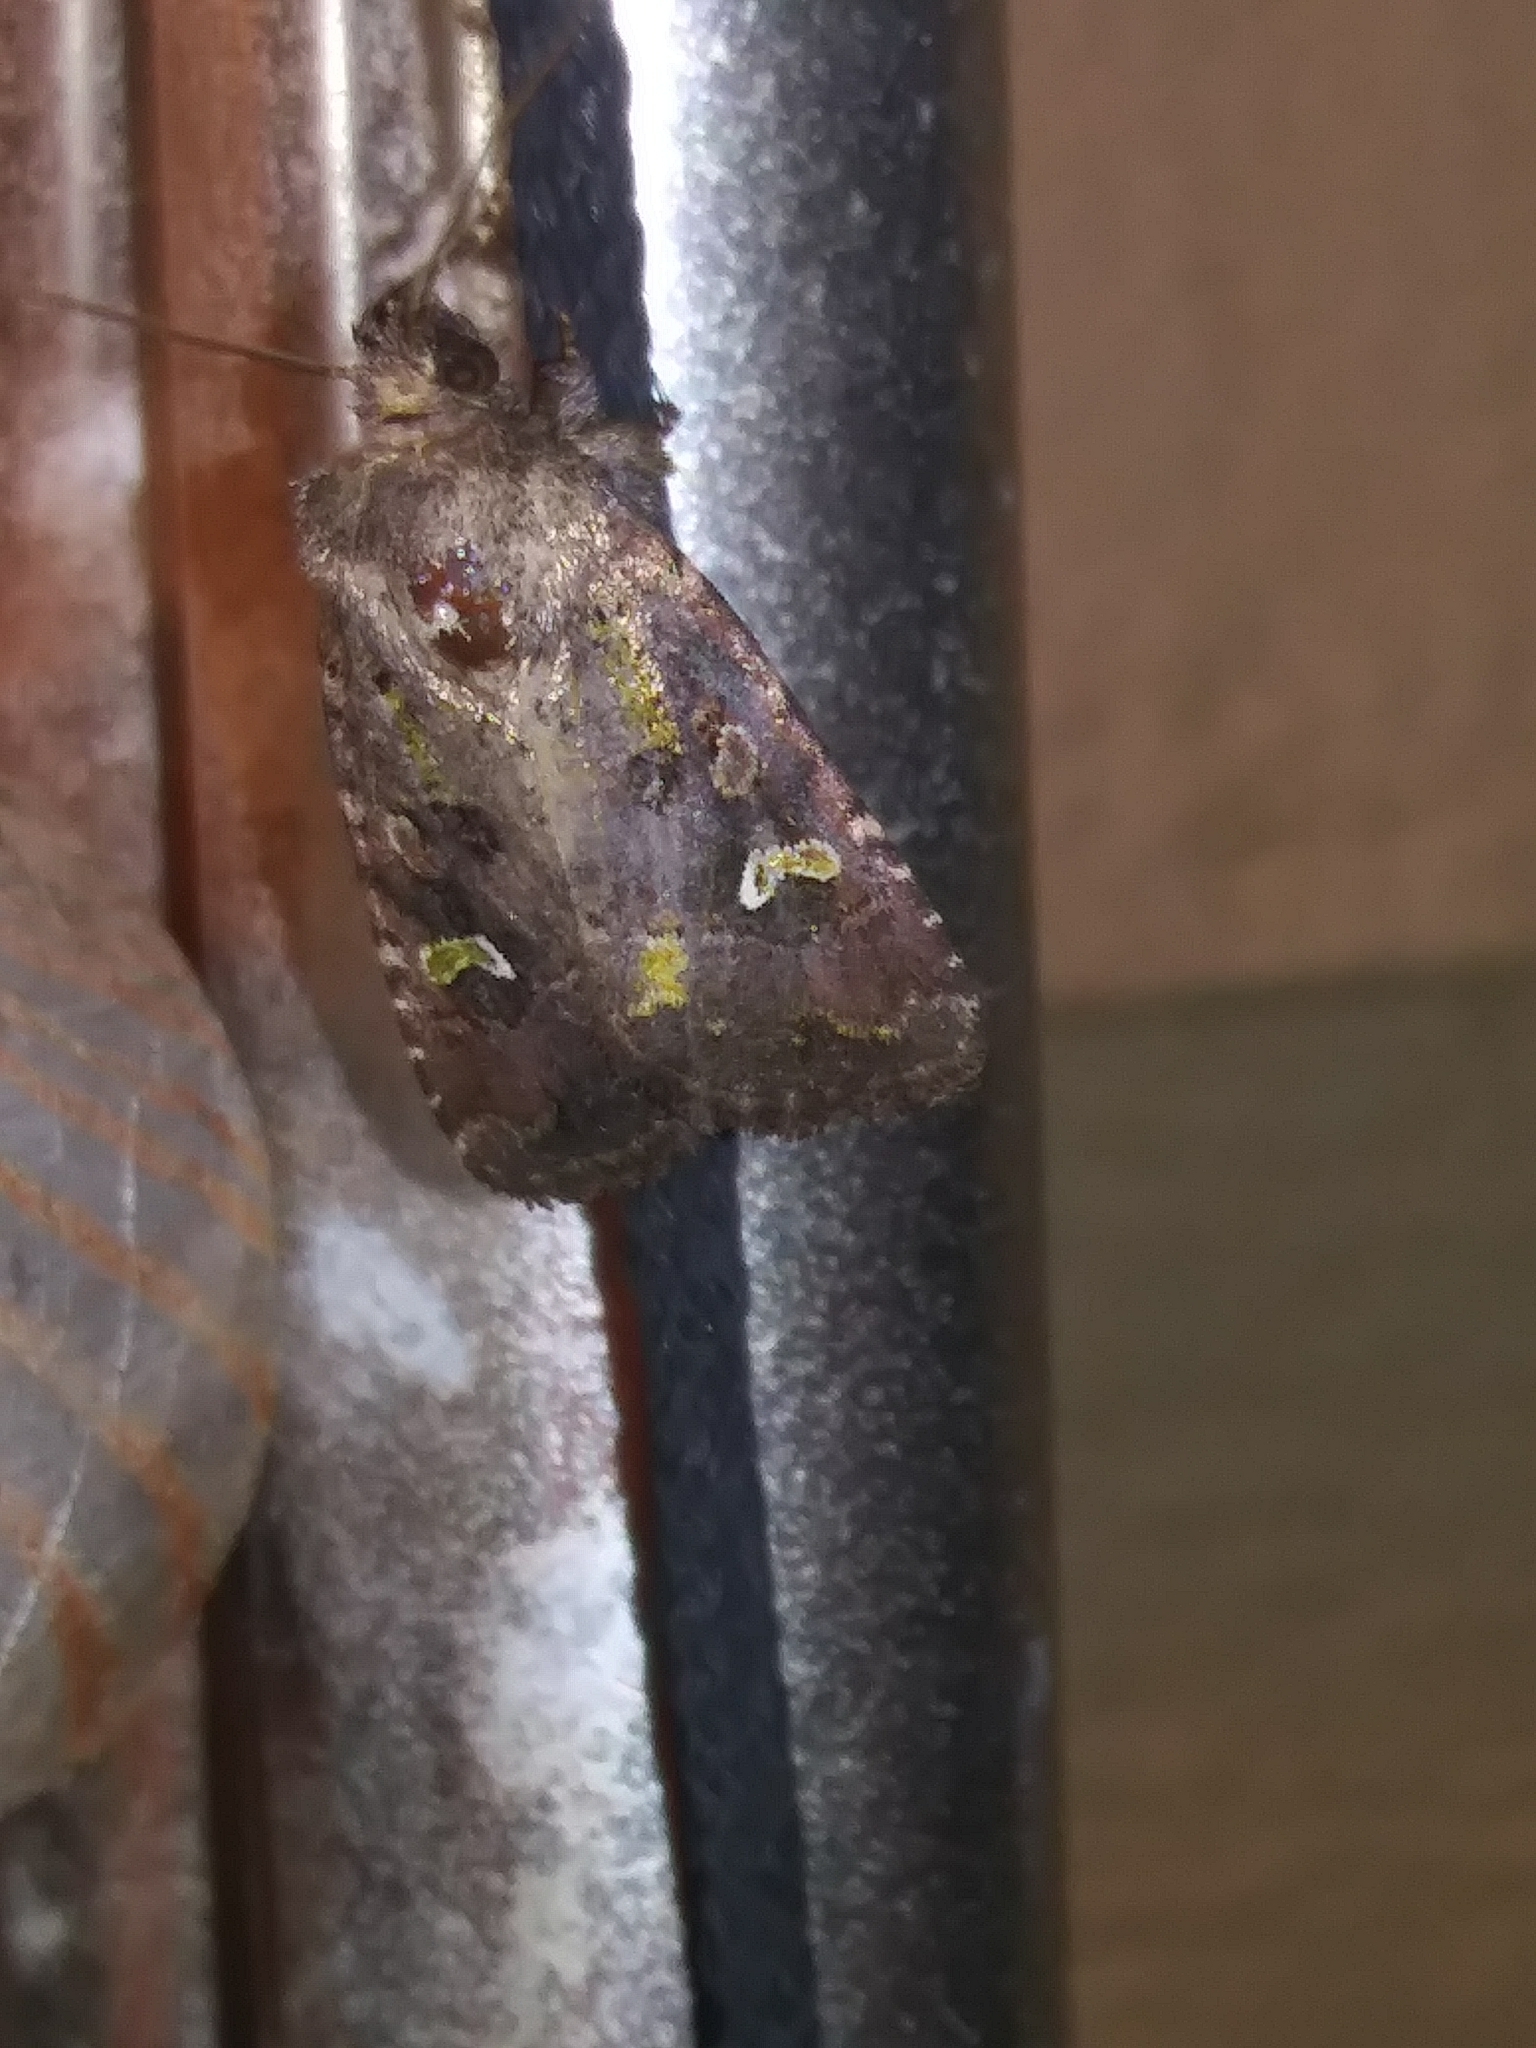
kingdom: Animalia
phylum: Arthropoda
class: Insecta
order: Lepidoptera
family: Noctuidae
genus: Lacinipolia
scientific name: Lacinipolia renigera
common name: Kidney-spotted minor
